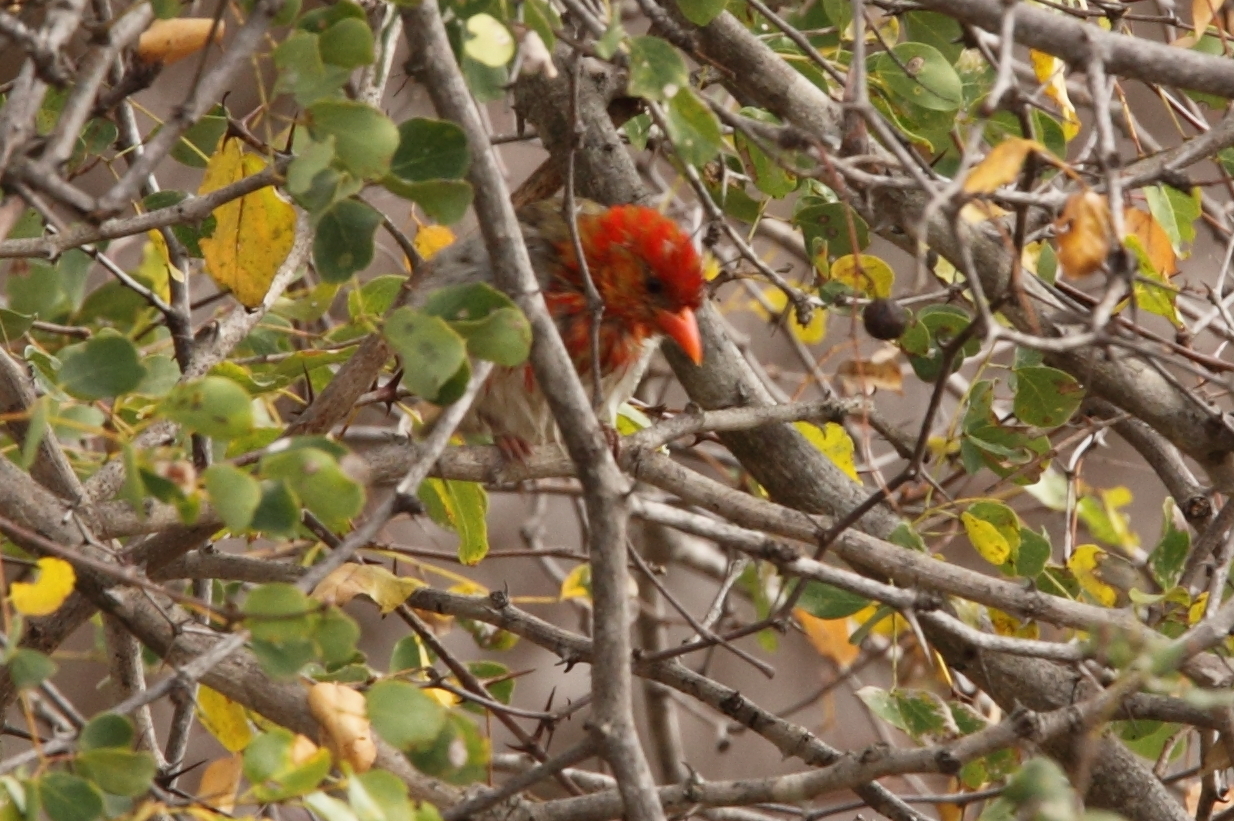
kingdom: Animalia
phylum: Chordata
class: Aves
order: Passeriformes
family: Ploceidae
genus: Anaplectes
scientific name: Anaplectes rubriceps
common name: Red-headed weaver
